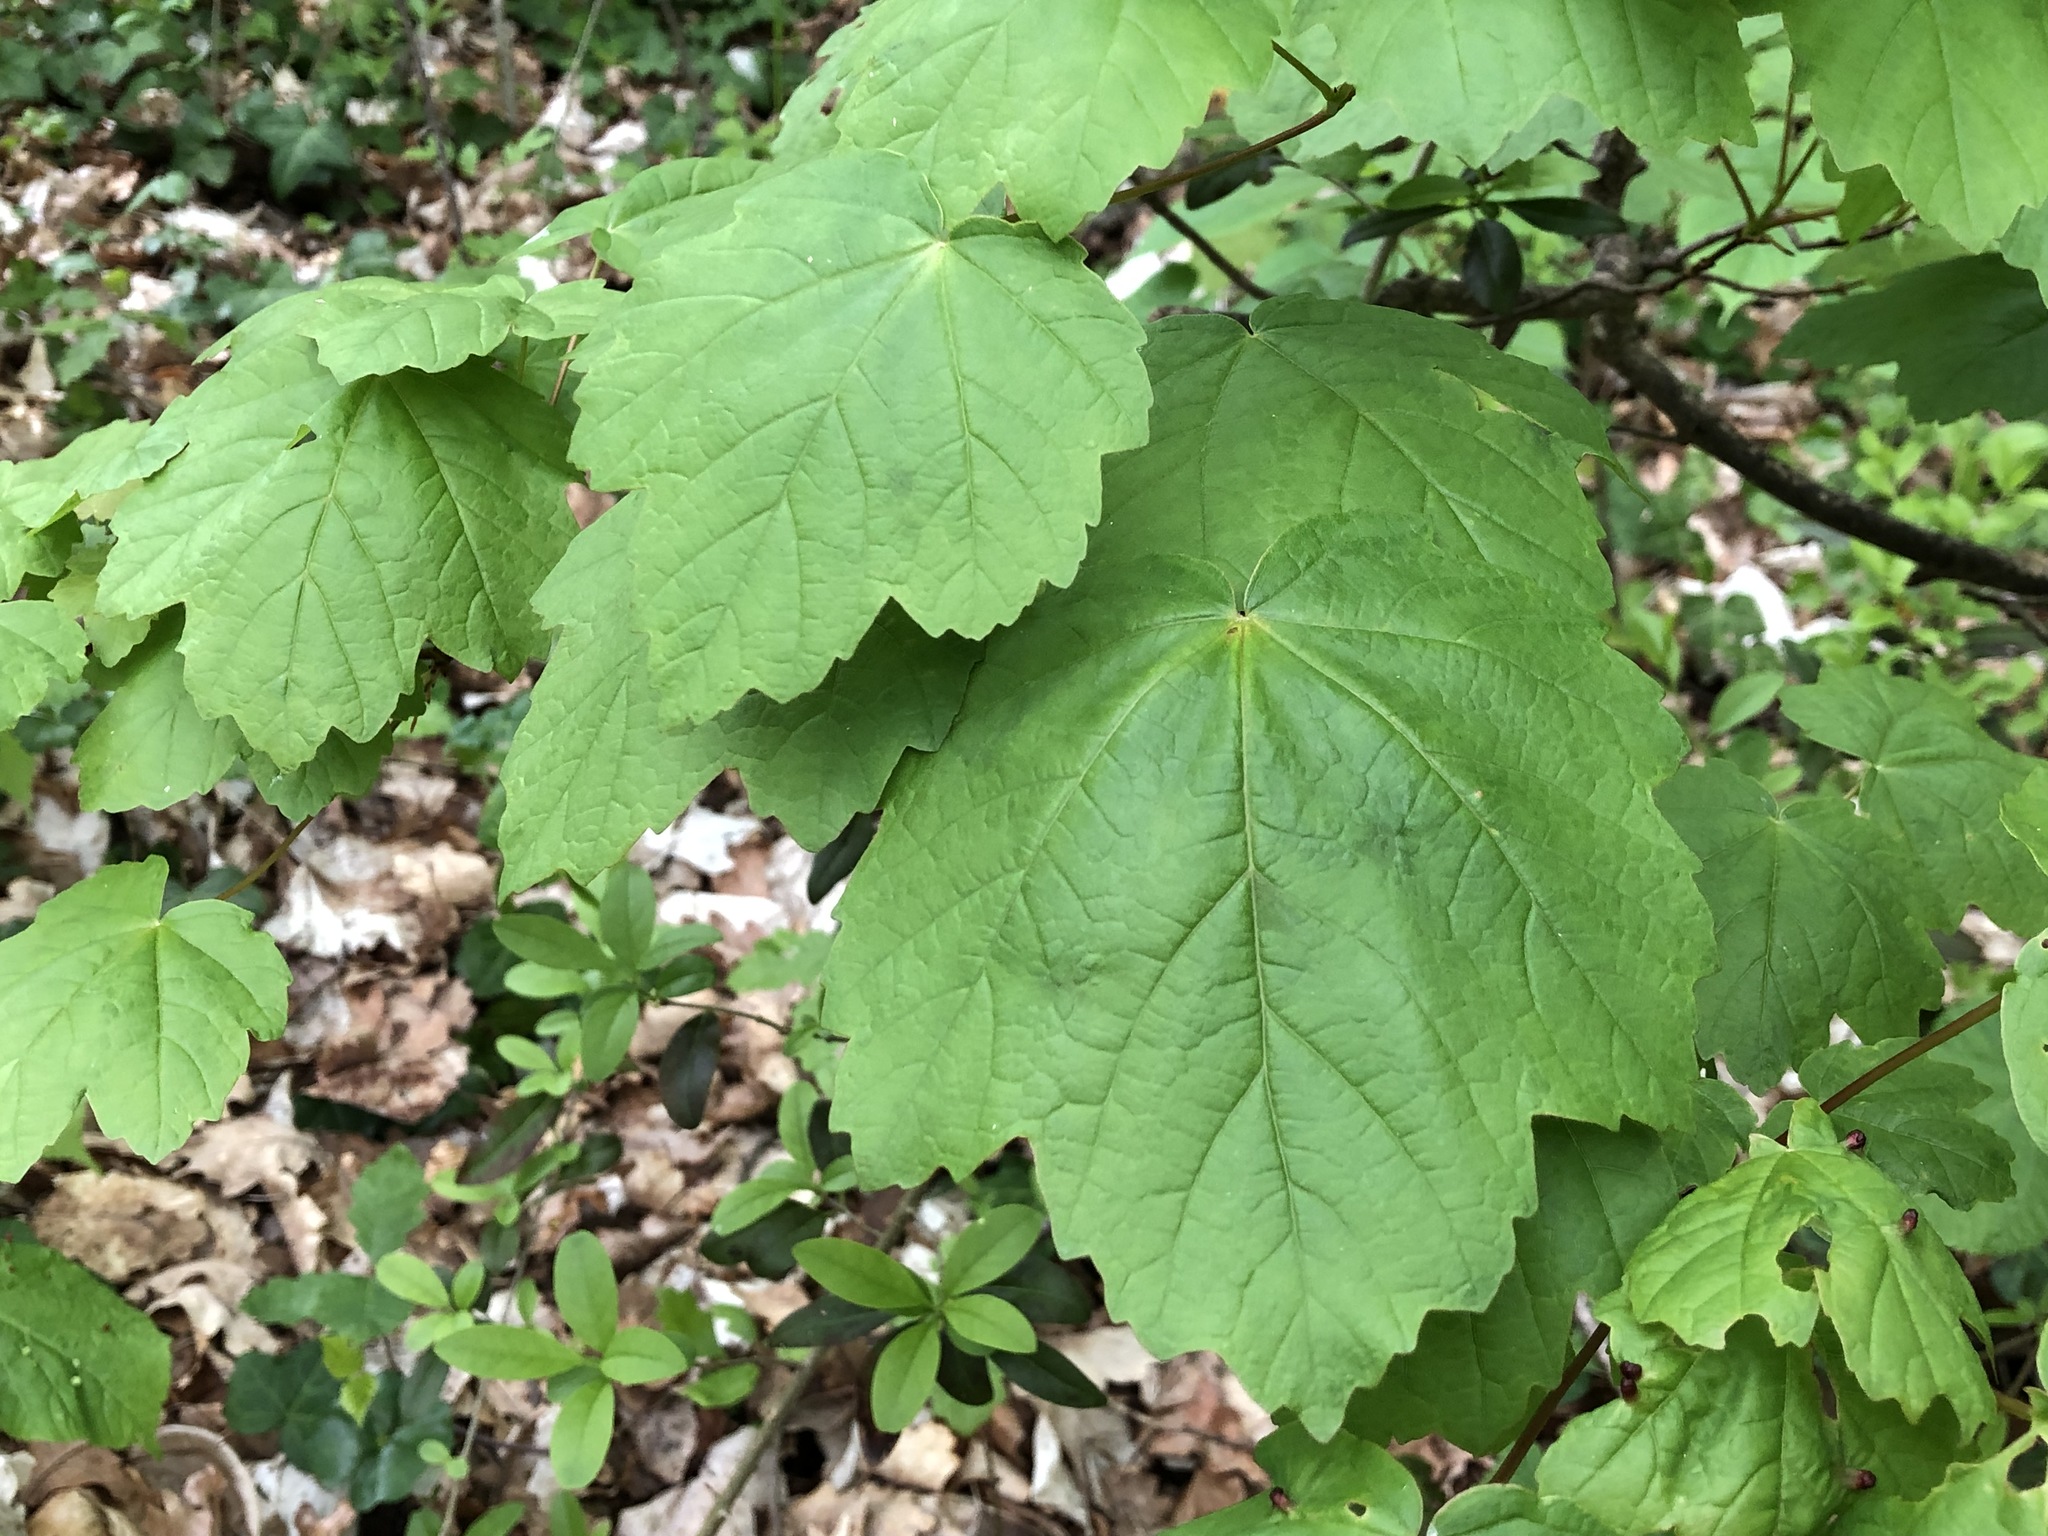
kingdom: Plantae
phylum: Tracheophyta
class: Magnoliopsida
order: Sapindales
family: Sapindaceae
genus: Acer
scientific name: Acer opalus
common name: Italian maple
